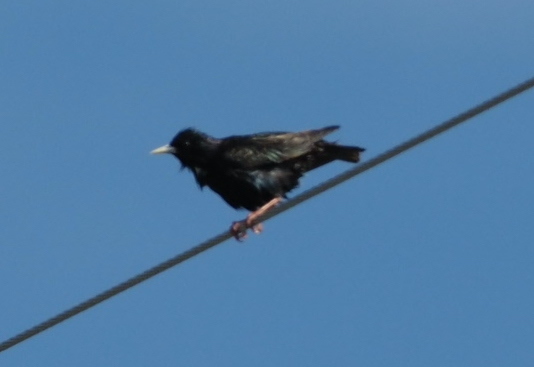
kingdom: Animalia
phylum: Chordata
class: Aves
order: Passeriformes
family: Sturnidae
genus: Sturnus
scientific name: Sturnus vulgaris
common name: Common starling
